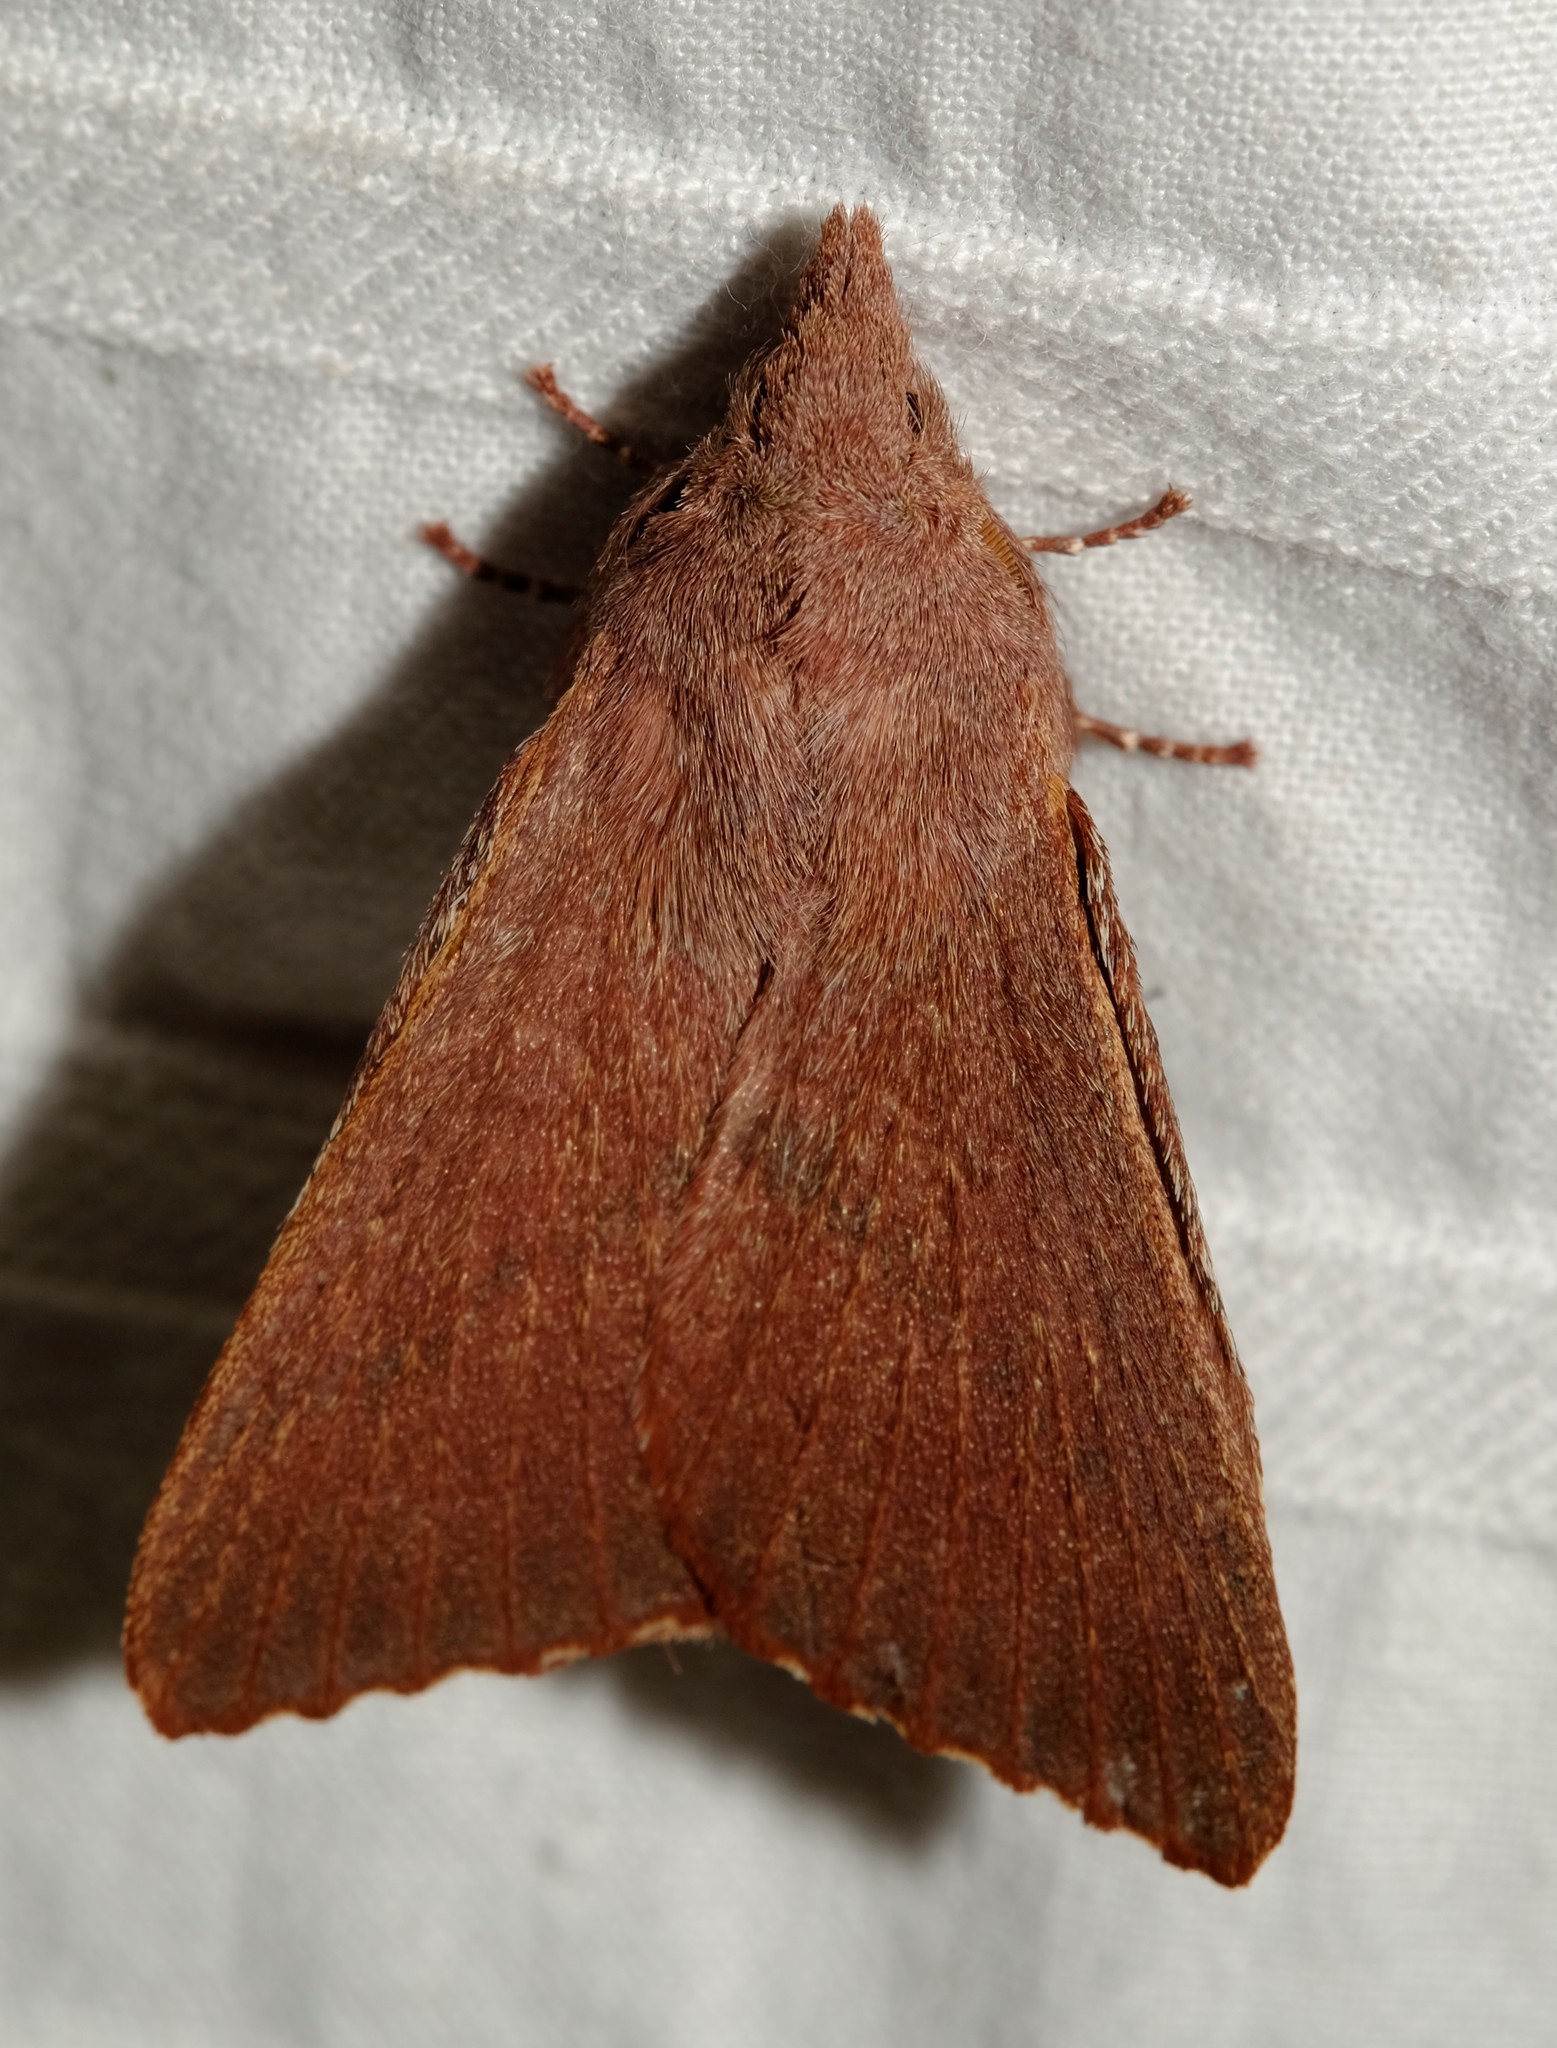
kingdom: Animalia
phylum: Arthropoda
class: Insecta
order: Lepidoptera
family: Lasiocampidae
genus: Pararguda
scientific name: Pararguda rufescens
